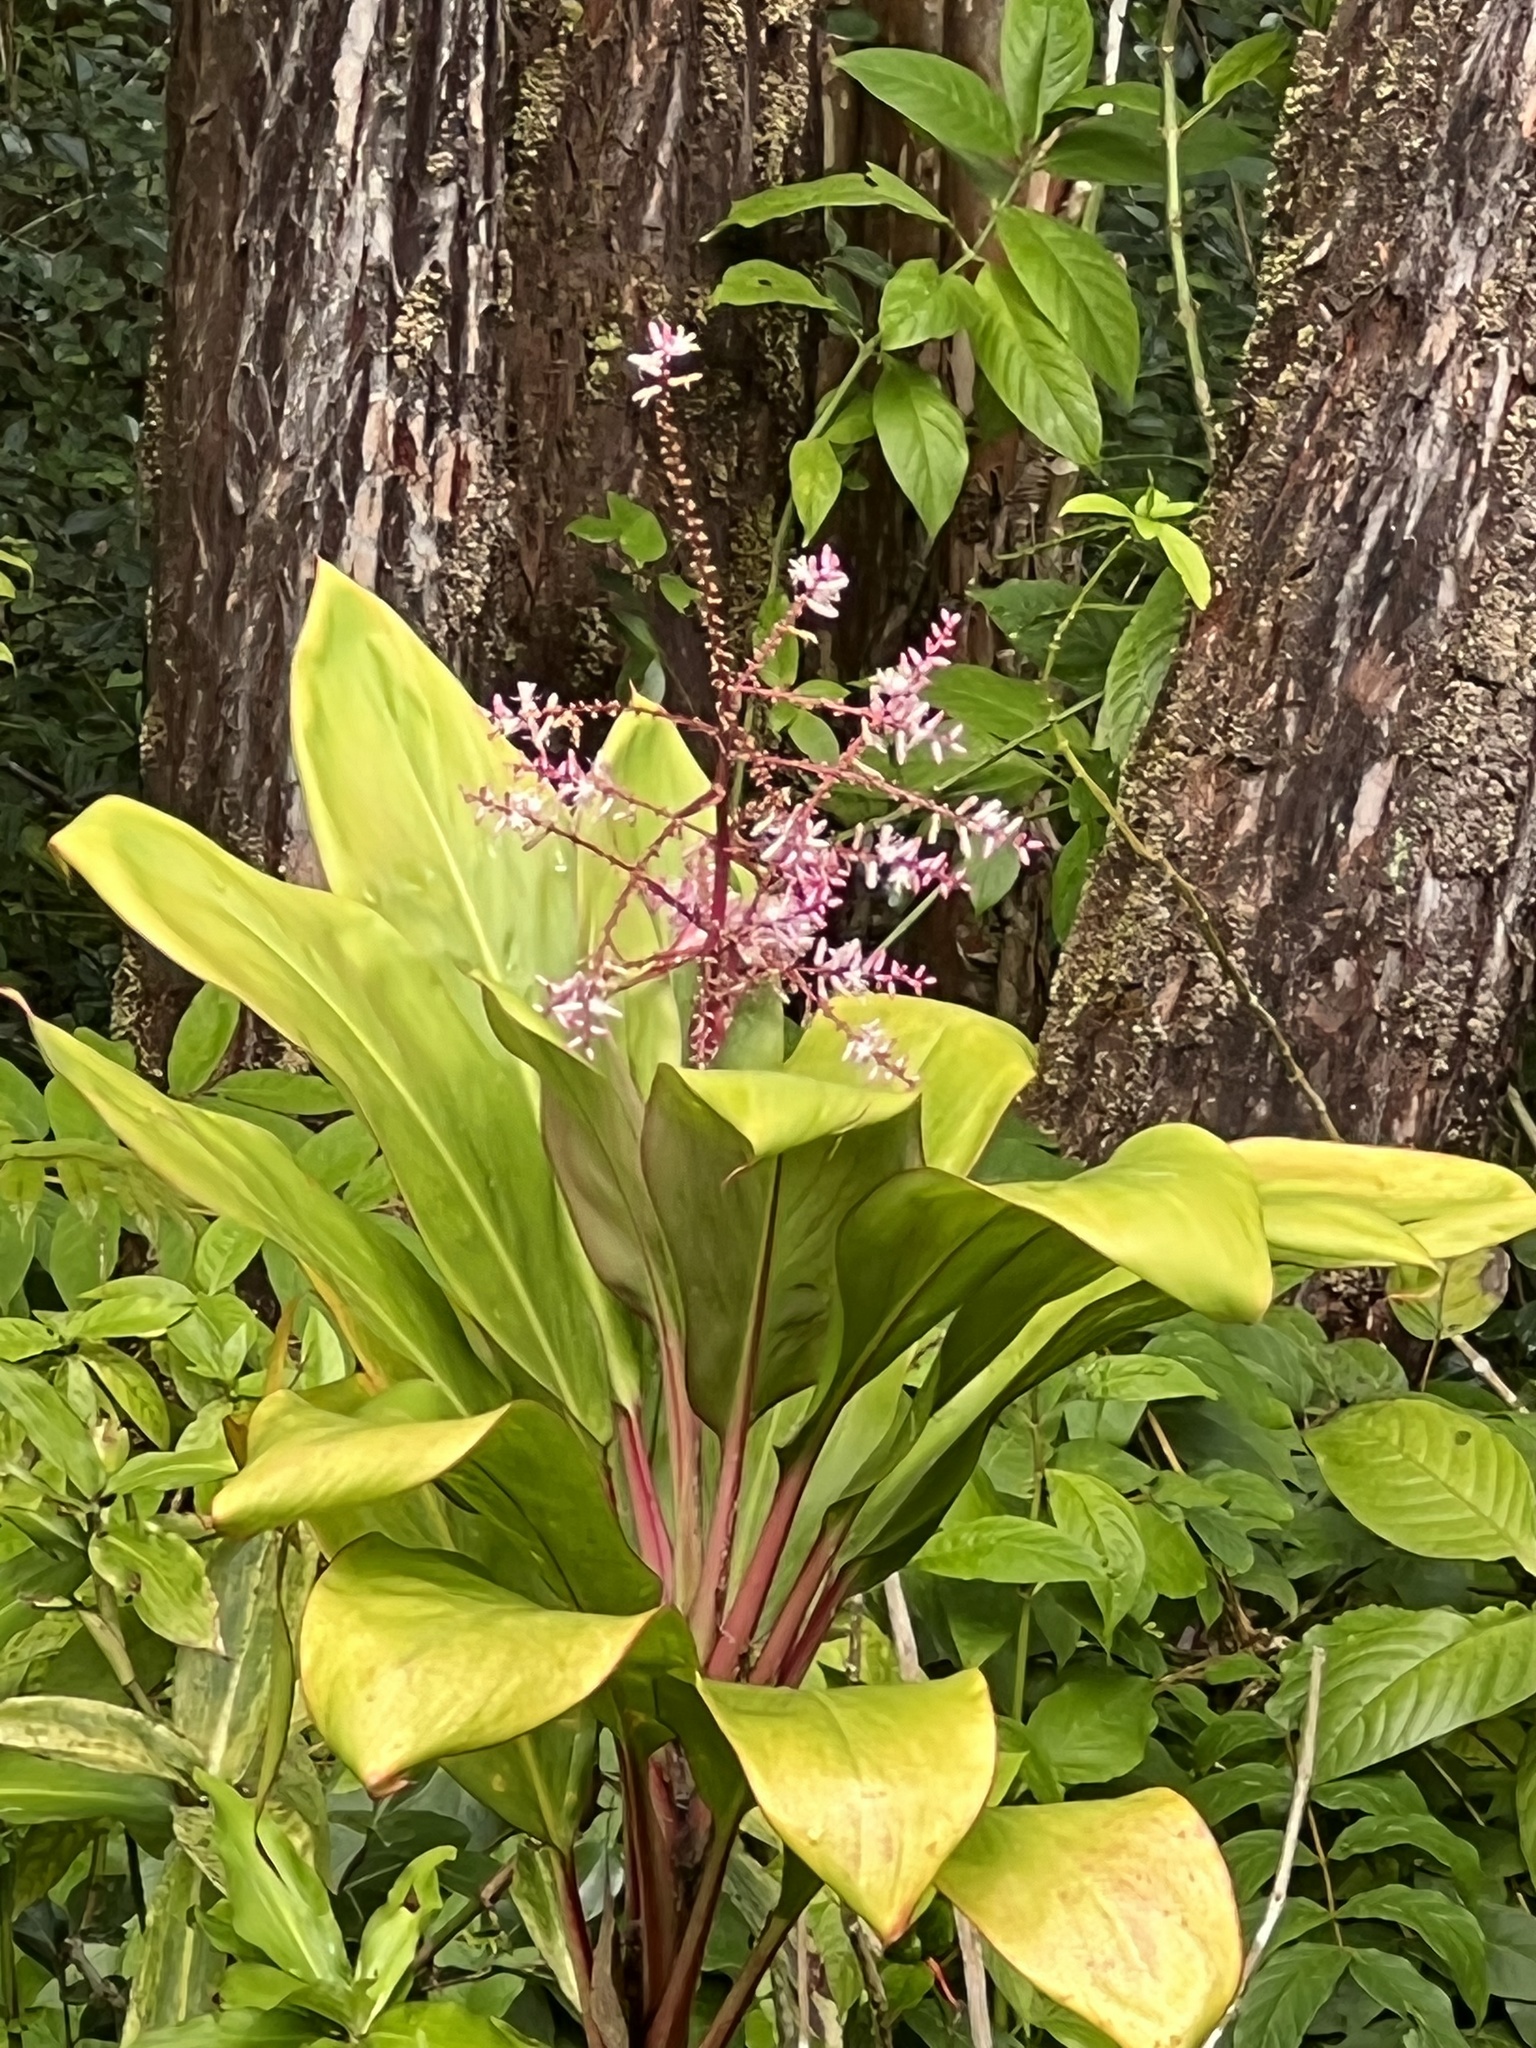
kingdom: Plantae
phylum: Tracheophyta
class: Liliopsida
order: Asparagales
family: Asparagaceae
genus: Cordyline
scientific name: Cordyline fruticosa
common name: Good-luck-plant
